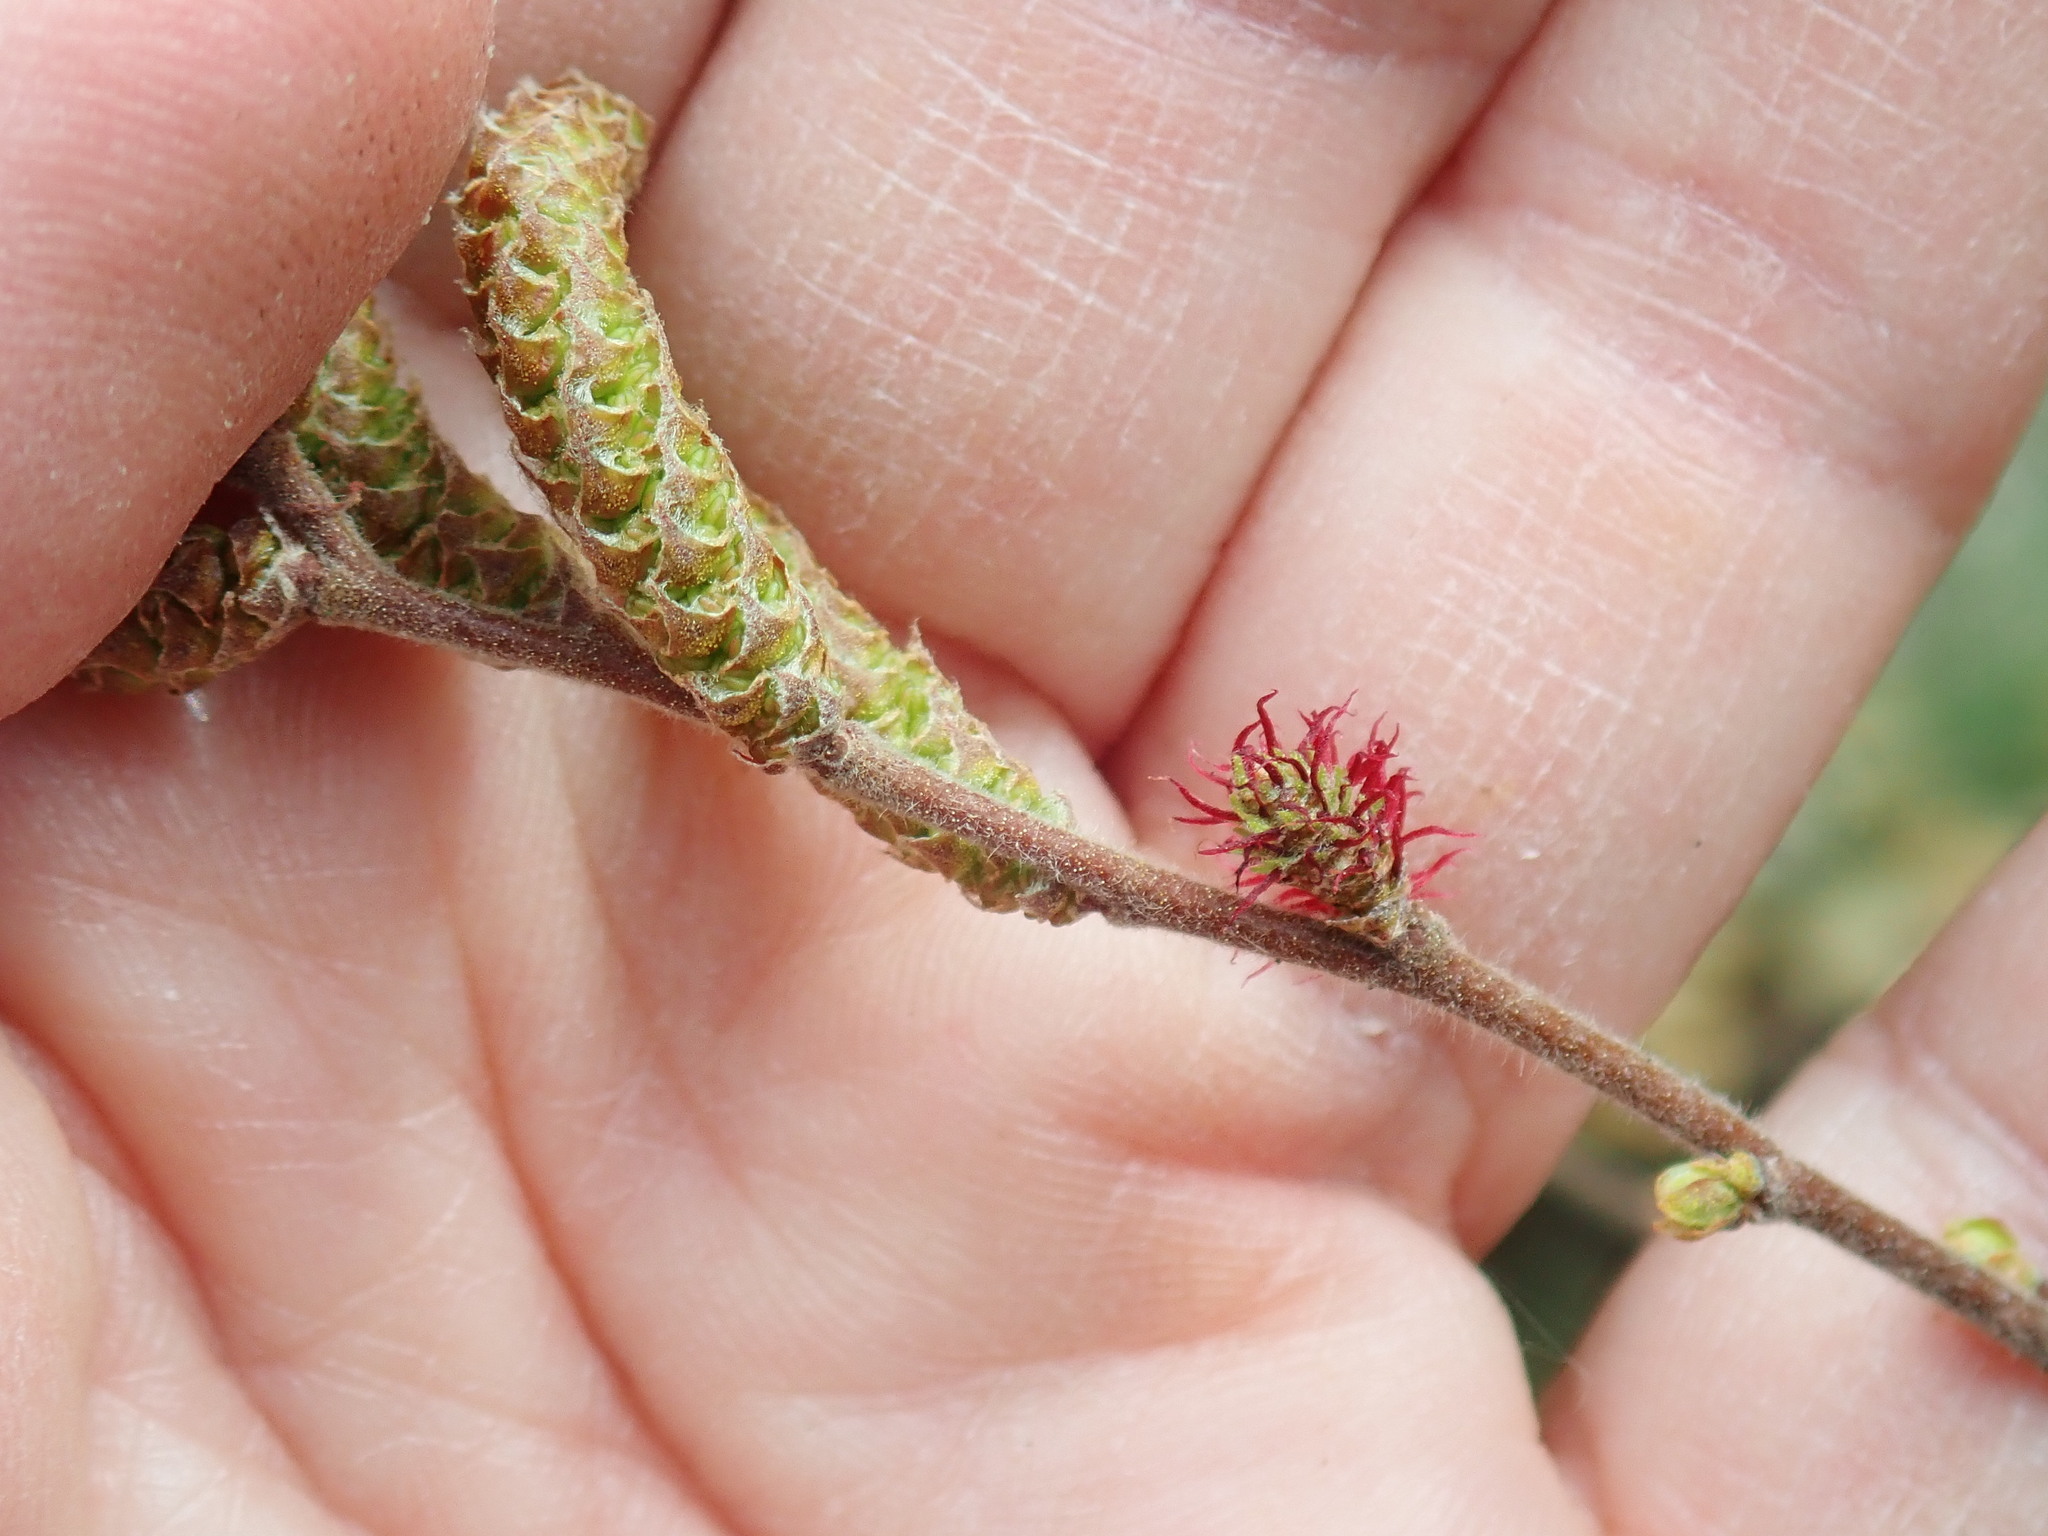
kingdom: Plantae
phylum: Tracheophyta
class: Magnoliopsida
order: Fagales
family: Myricaceae
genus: Comptonia
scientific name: Comptonia peregrina
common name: Sweet-fern
